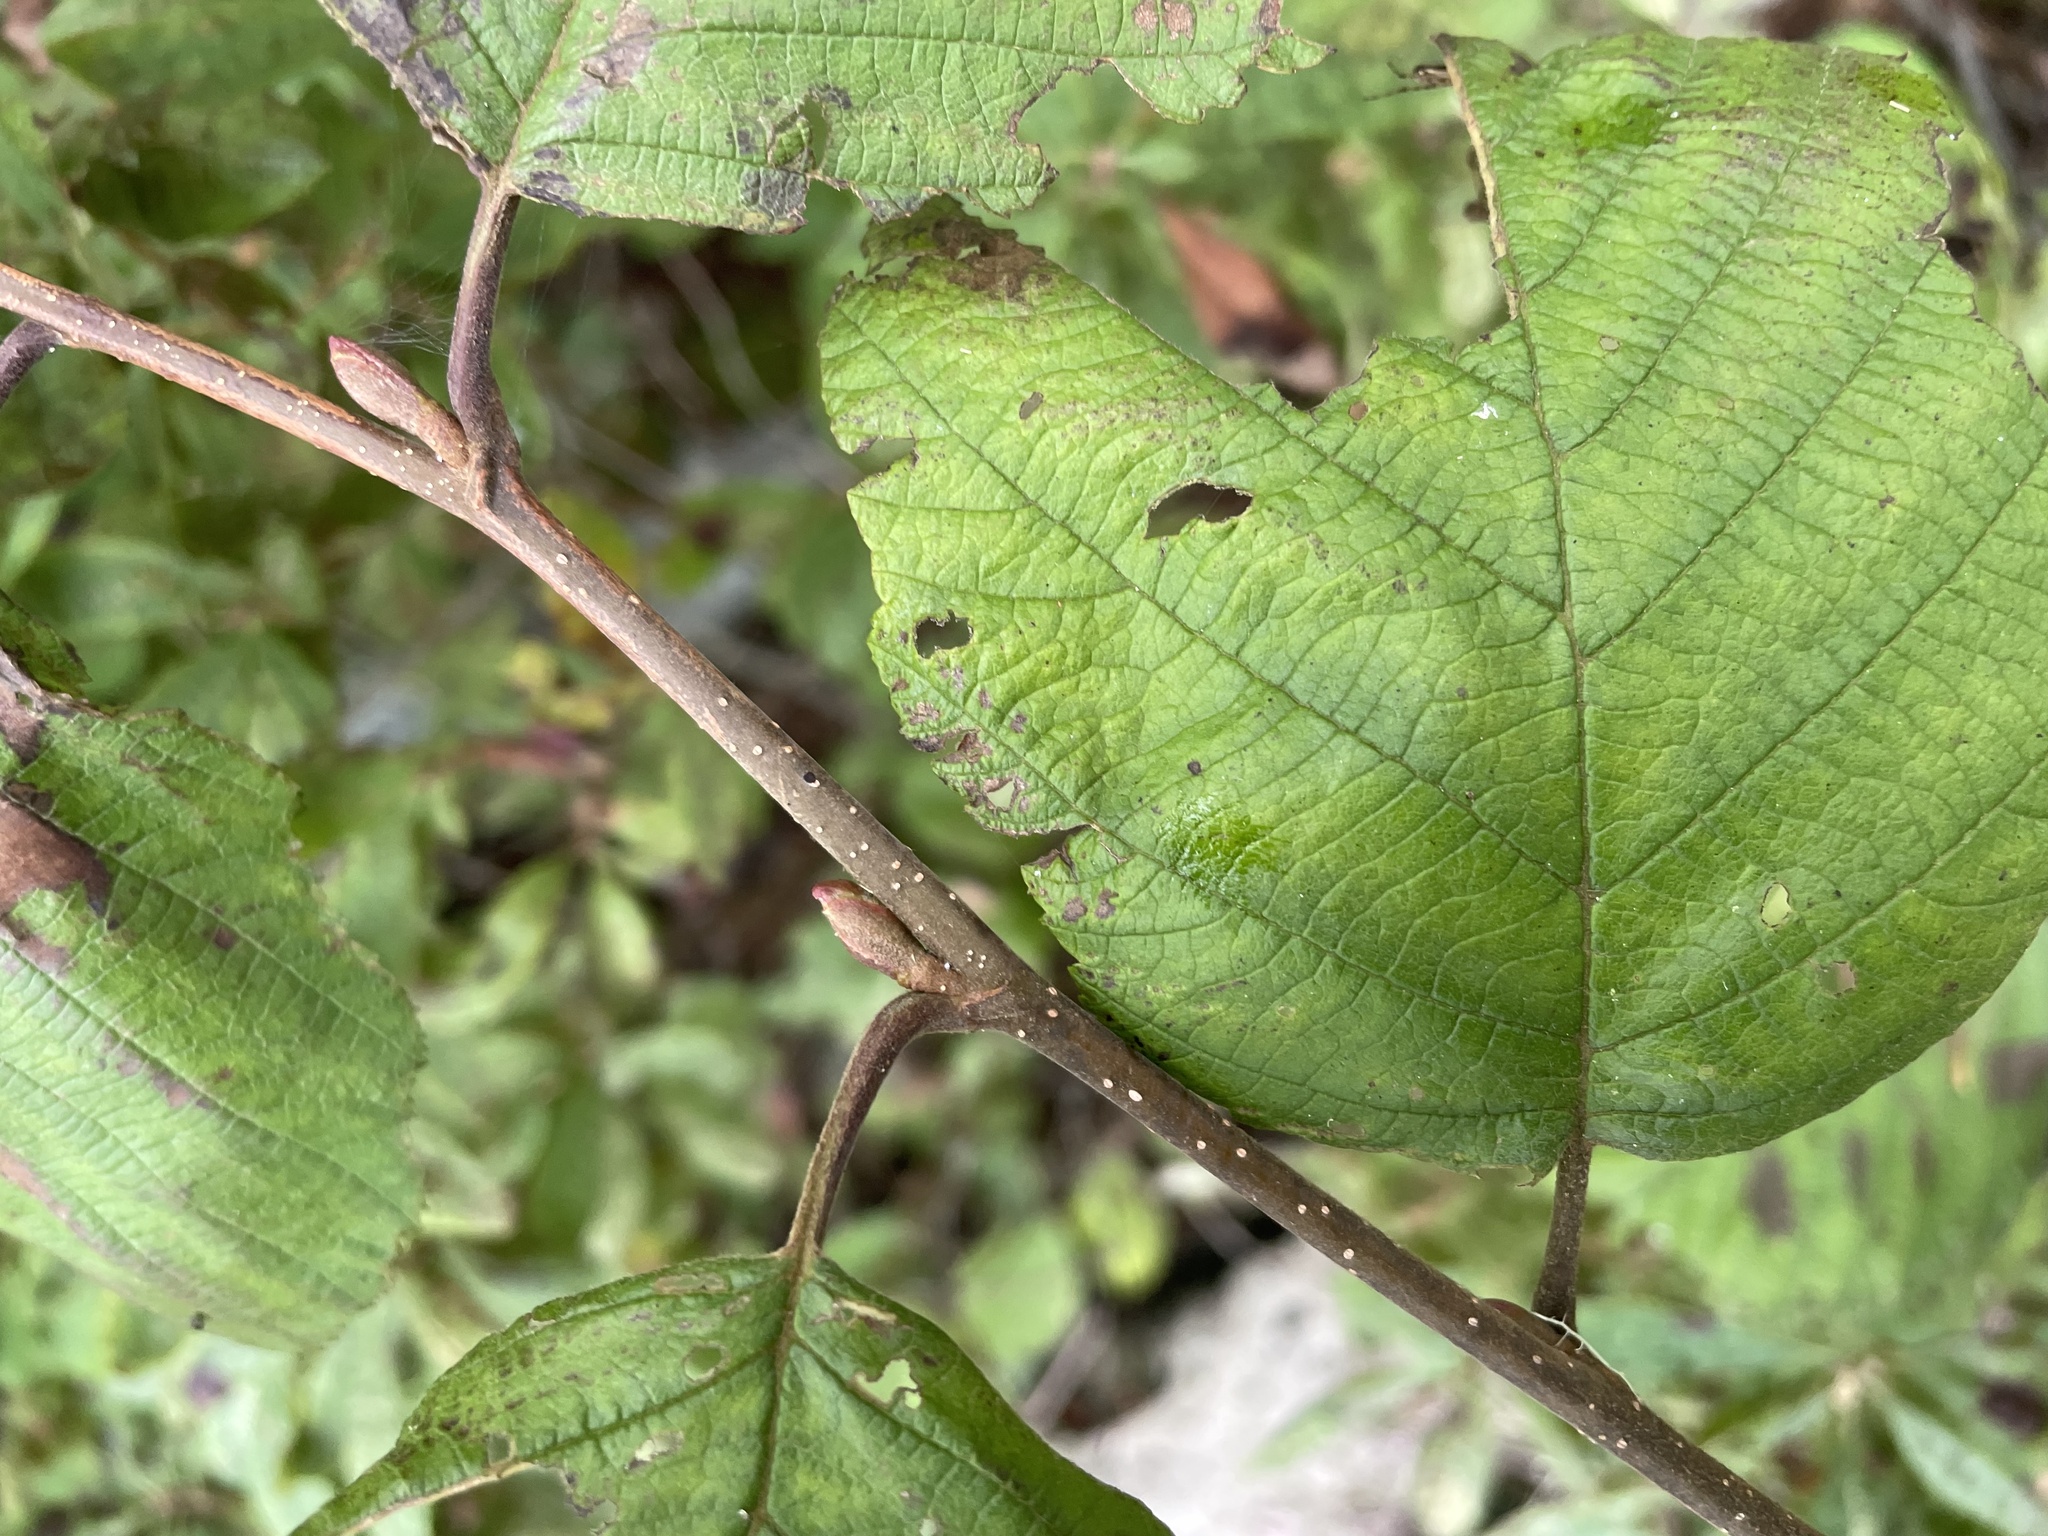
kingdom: Plantae
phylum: Tracheophyta
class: Magnoliopsida
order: Fagales
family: Betulaceae
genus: Alnus
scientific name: Alnus incana
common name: Grey alder
